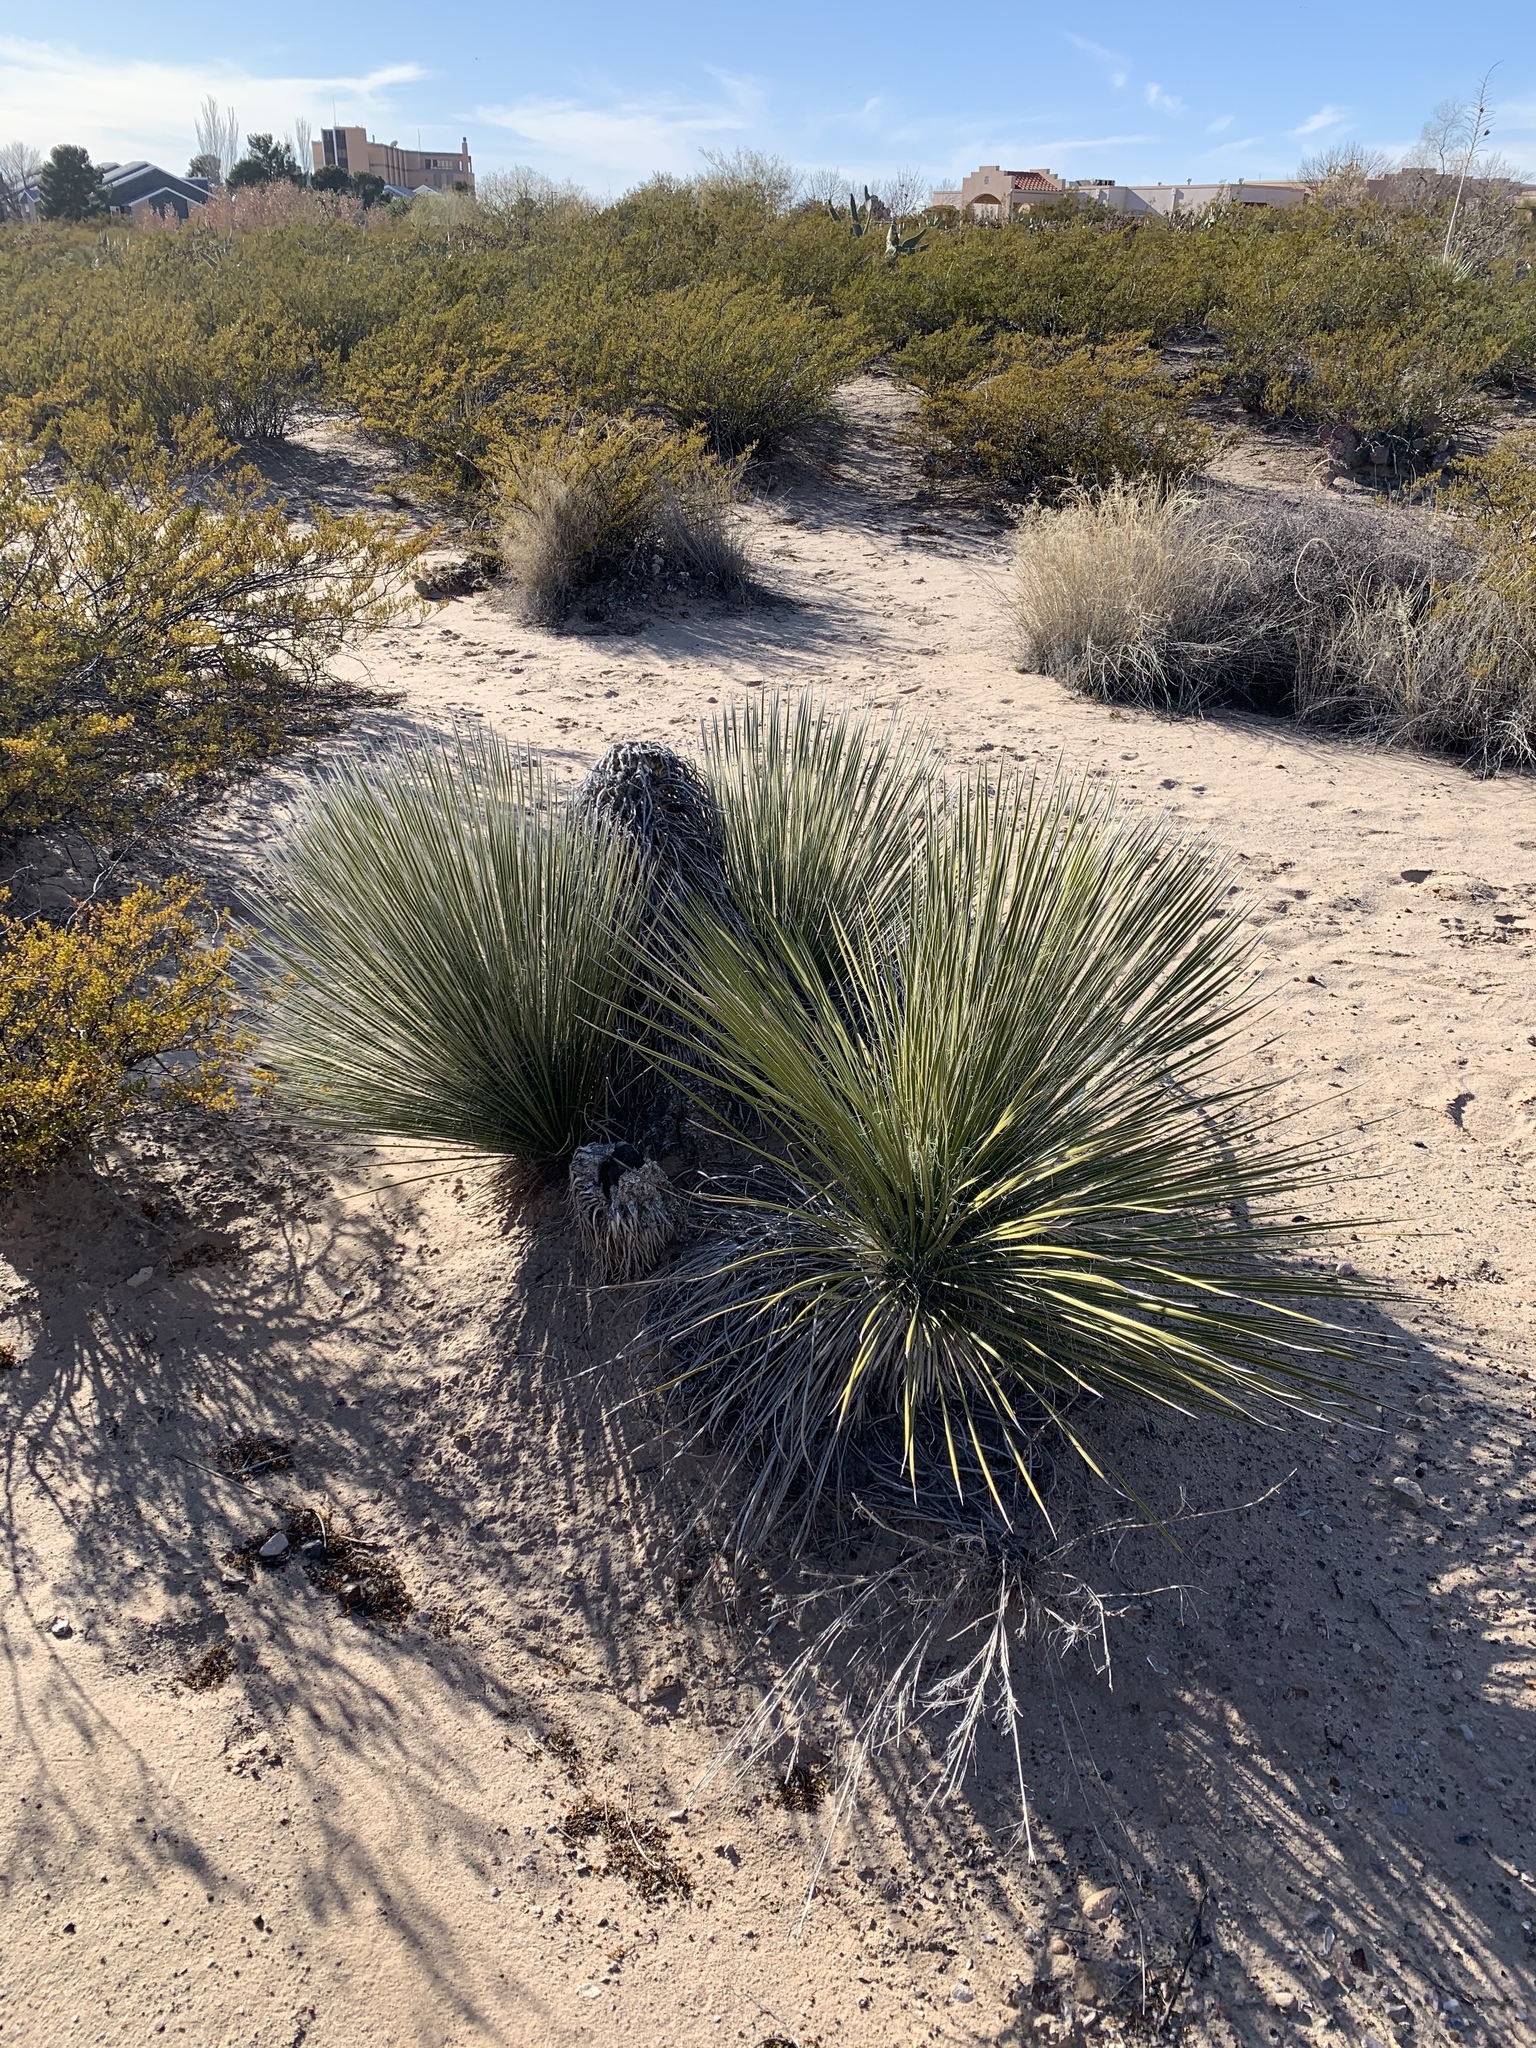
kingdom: Plantae
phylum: Tracheophyta
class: Liliopsida
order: Asparagales
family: Asparagaceae
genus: Yucca
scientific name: Yucca elata
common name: Palmella
